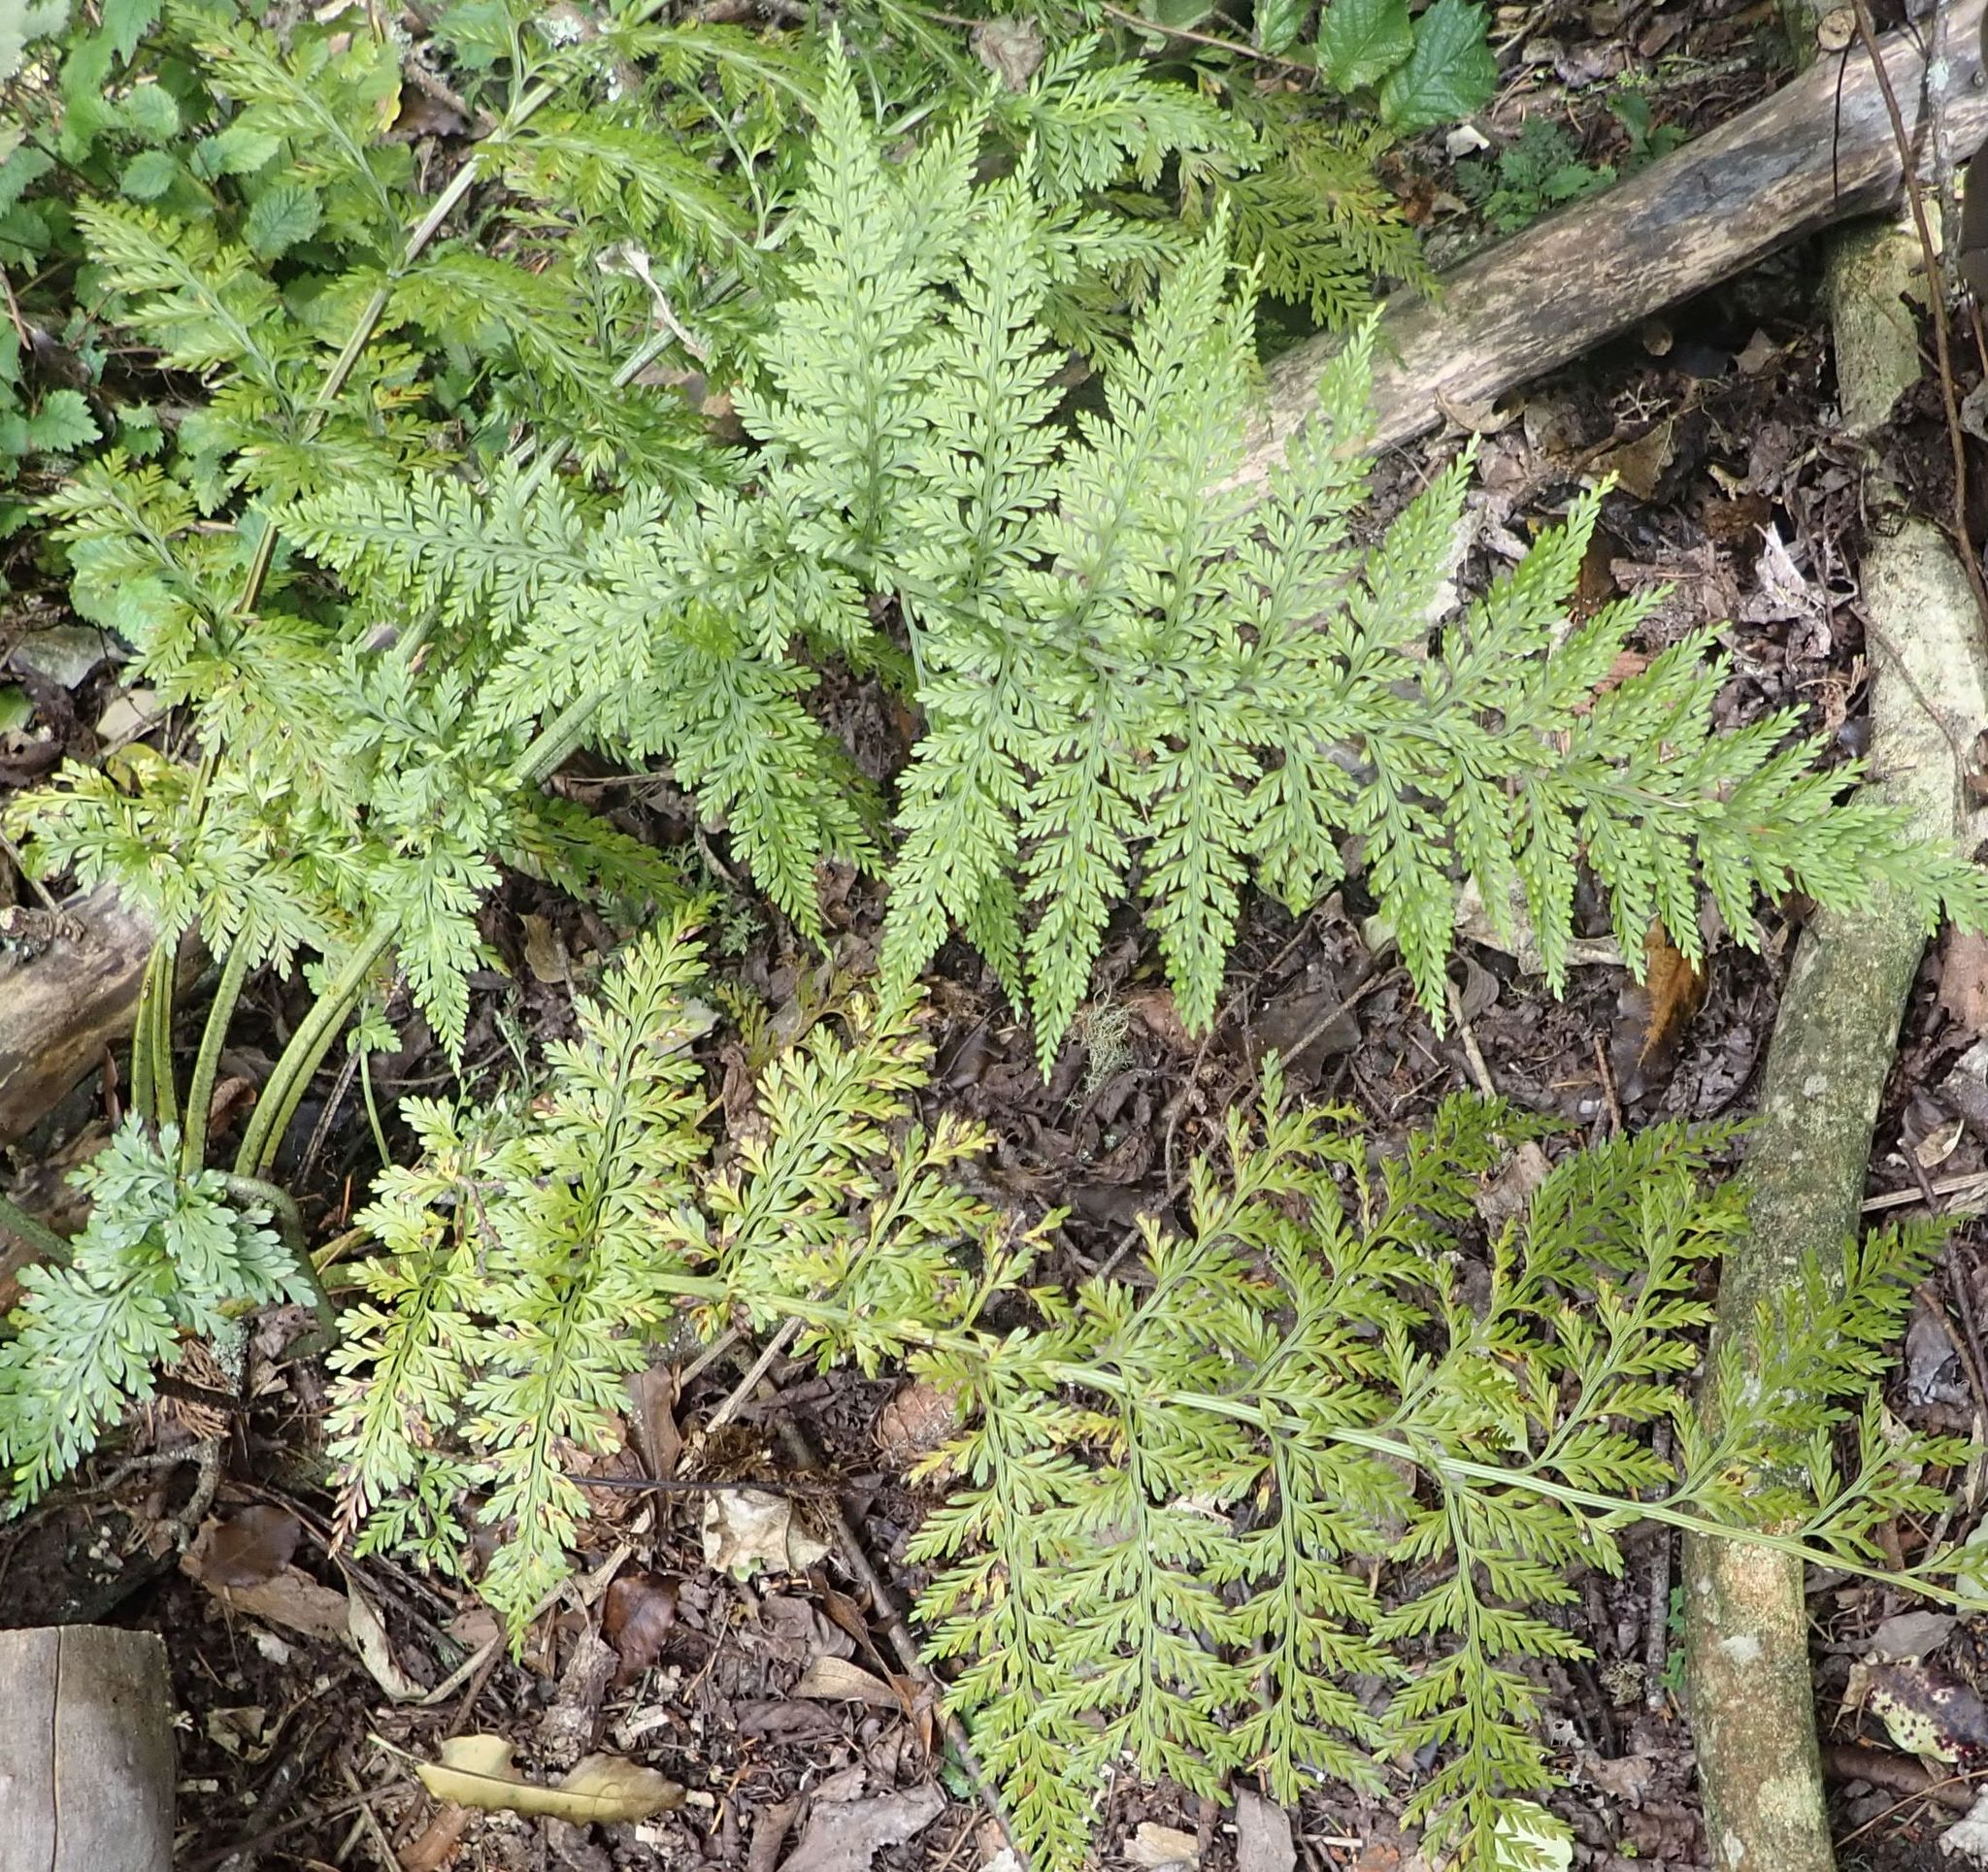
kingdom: Plantae
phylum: Tracheophyta
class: Polypodiopsida
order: Polypodiales
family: Aspleniaceae
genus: Asplenium
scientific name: Asplenium
